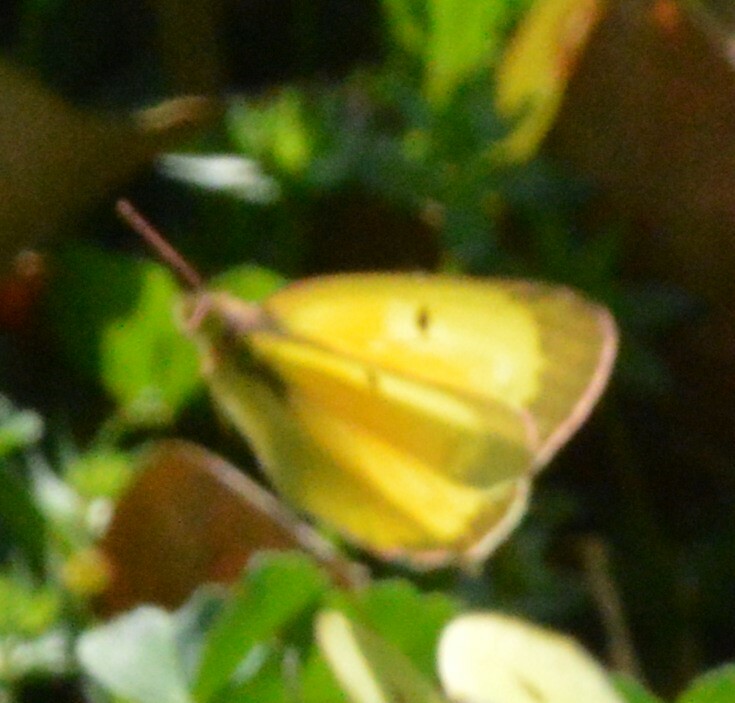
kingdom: Animalia
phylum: Arthropoda
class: Insecta
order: Lepidoptera
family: Pieridae
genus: Colias
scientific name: Colias eurytheme
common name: Alfalfa butterfly
